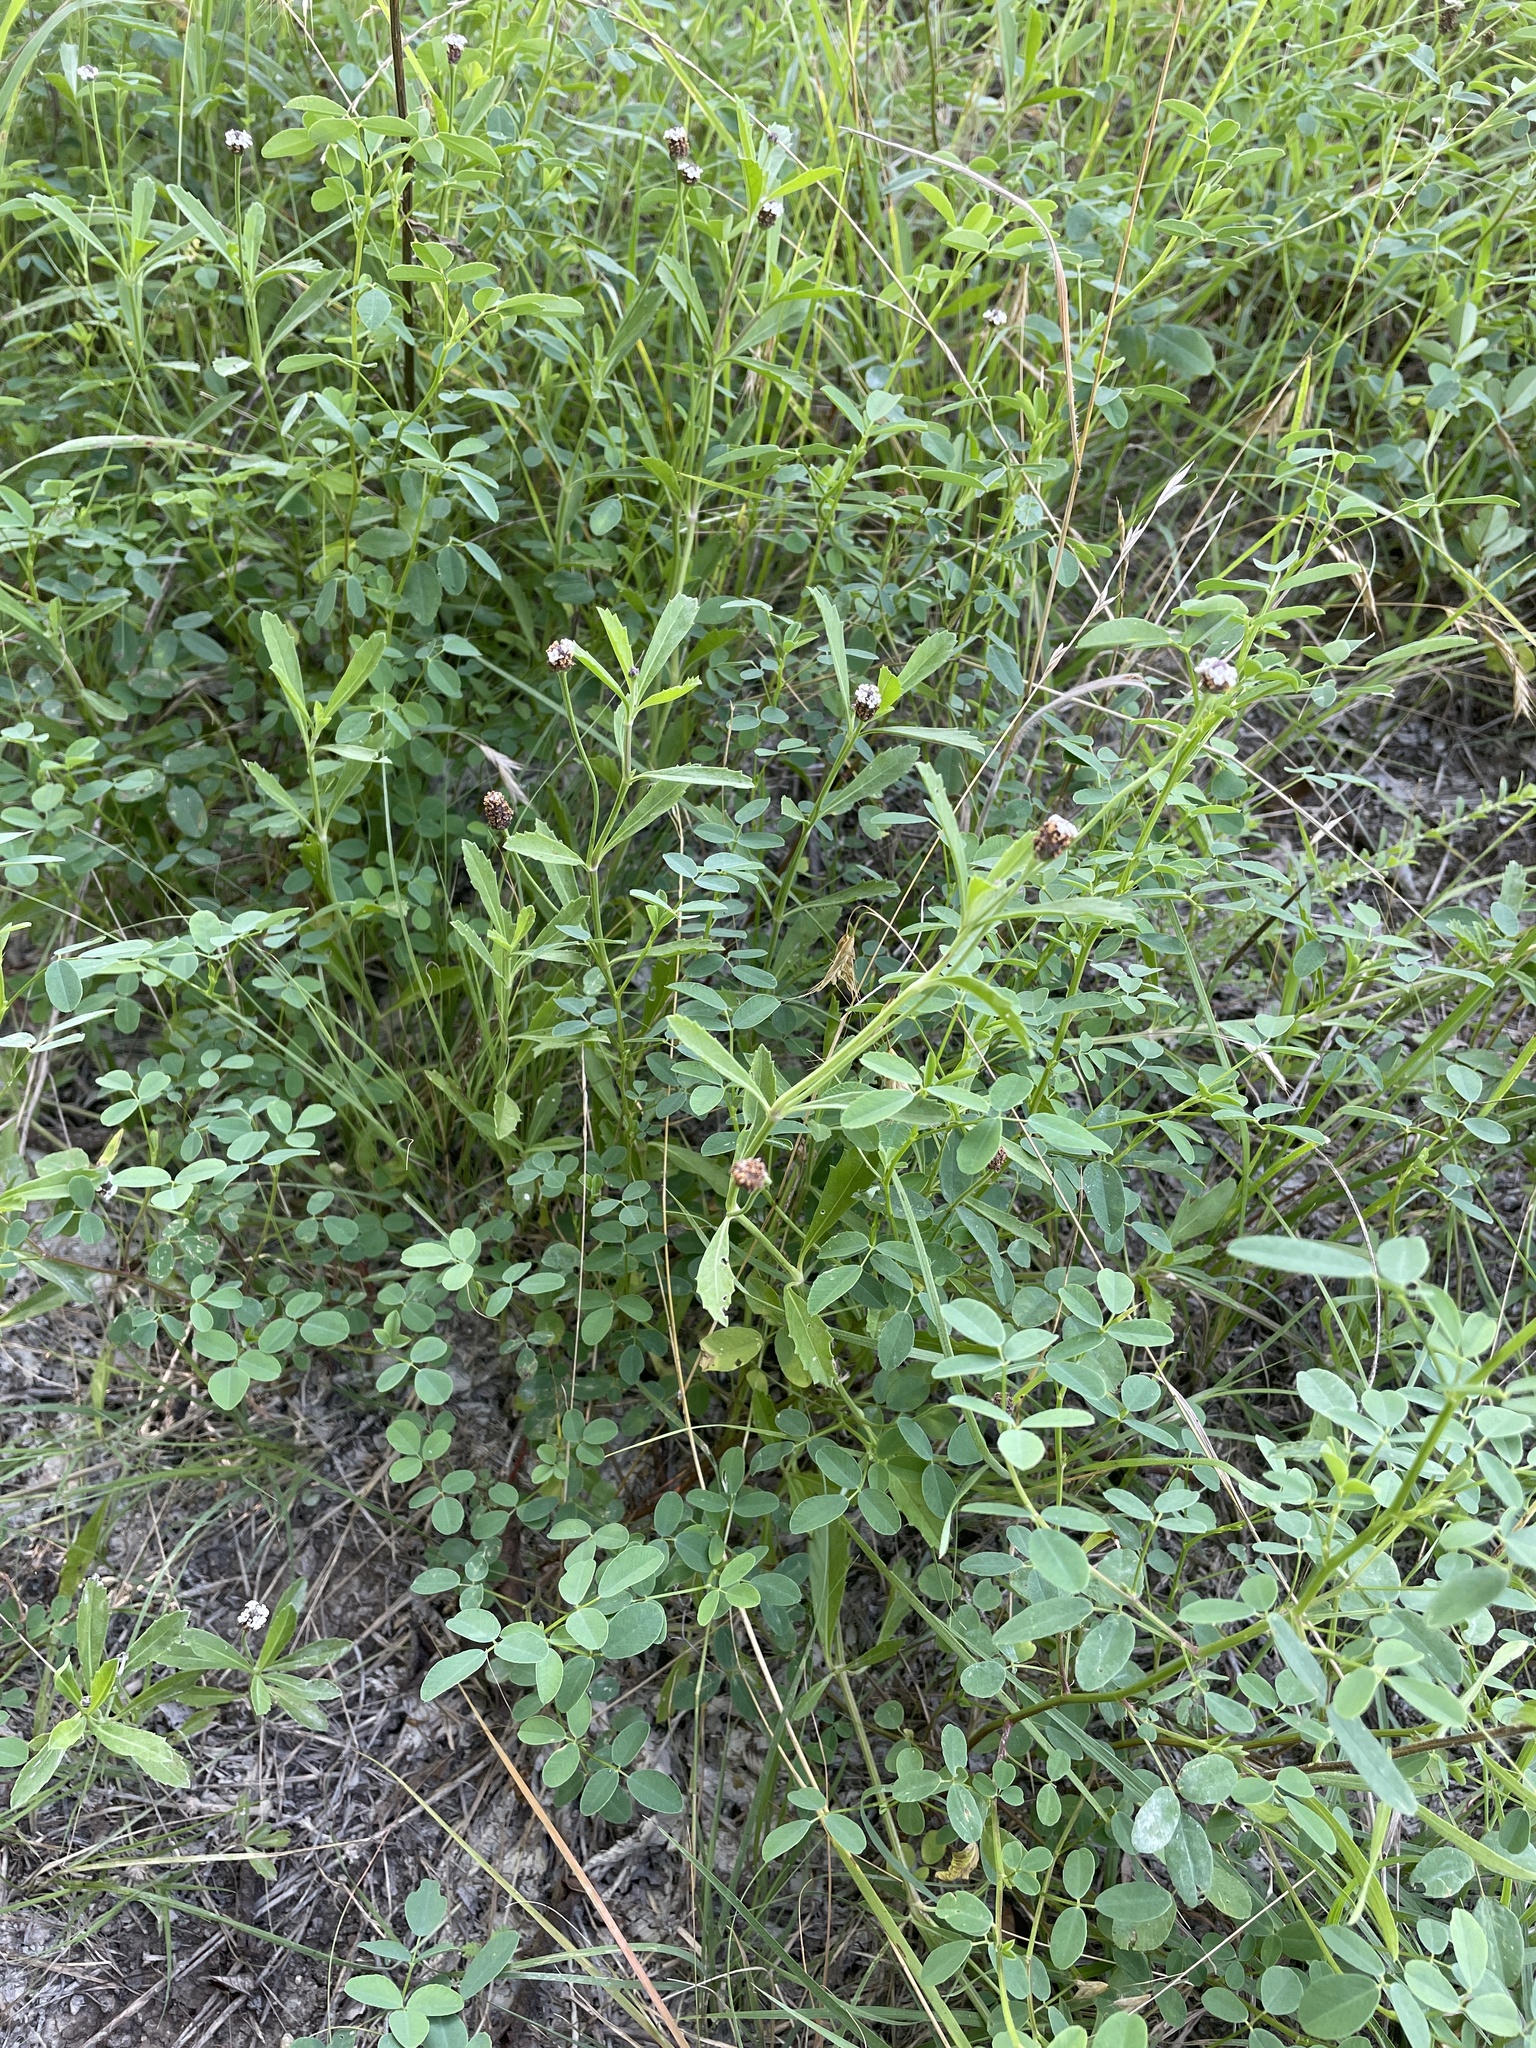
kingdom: Plantae
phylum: Tracheophyta
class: Magnoliopsida
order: Lamiales
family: Verbenaceae
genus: Phyla
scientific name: Phyla nodiflora
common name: Frogfruit
